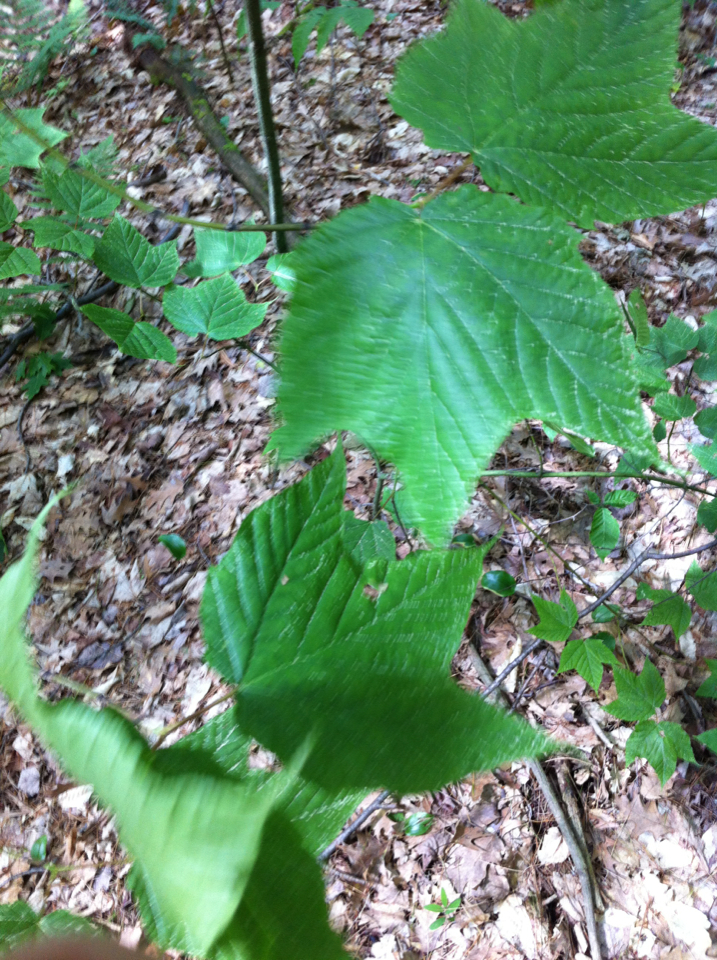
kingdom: Plantae
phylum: Tracheophyta
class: Magnoliopsida
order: Sapindales
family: Sapindaceae
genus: Acer
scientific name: Acer pensylvanicum
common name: Moosewood
